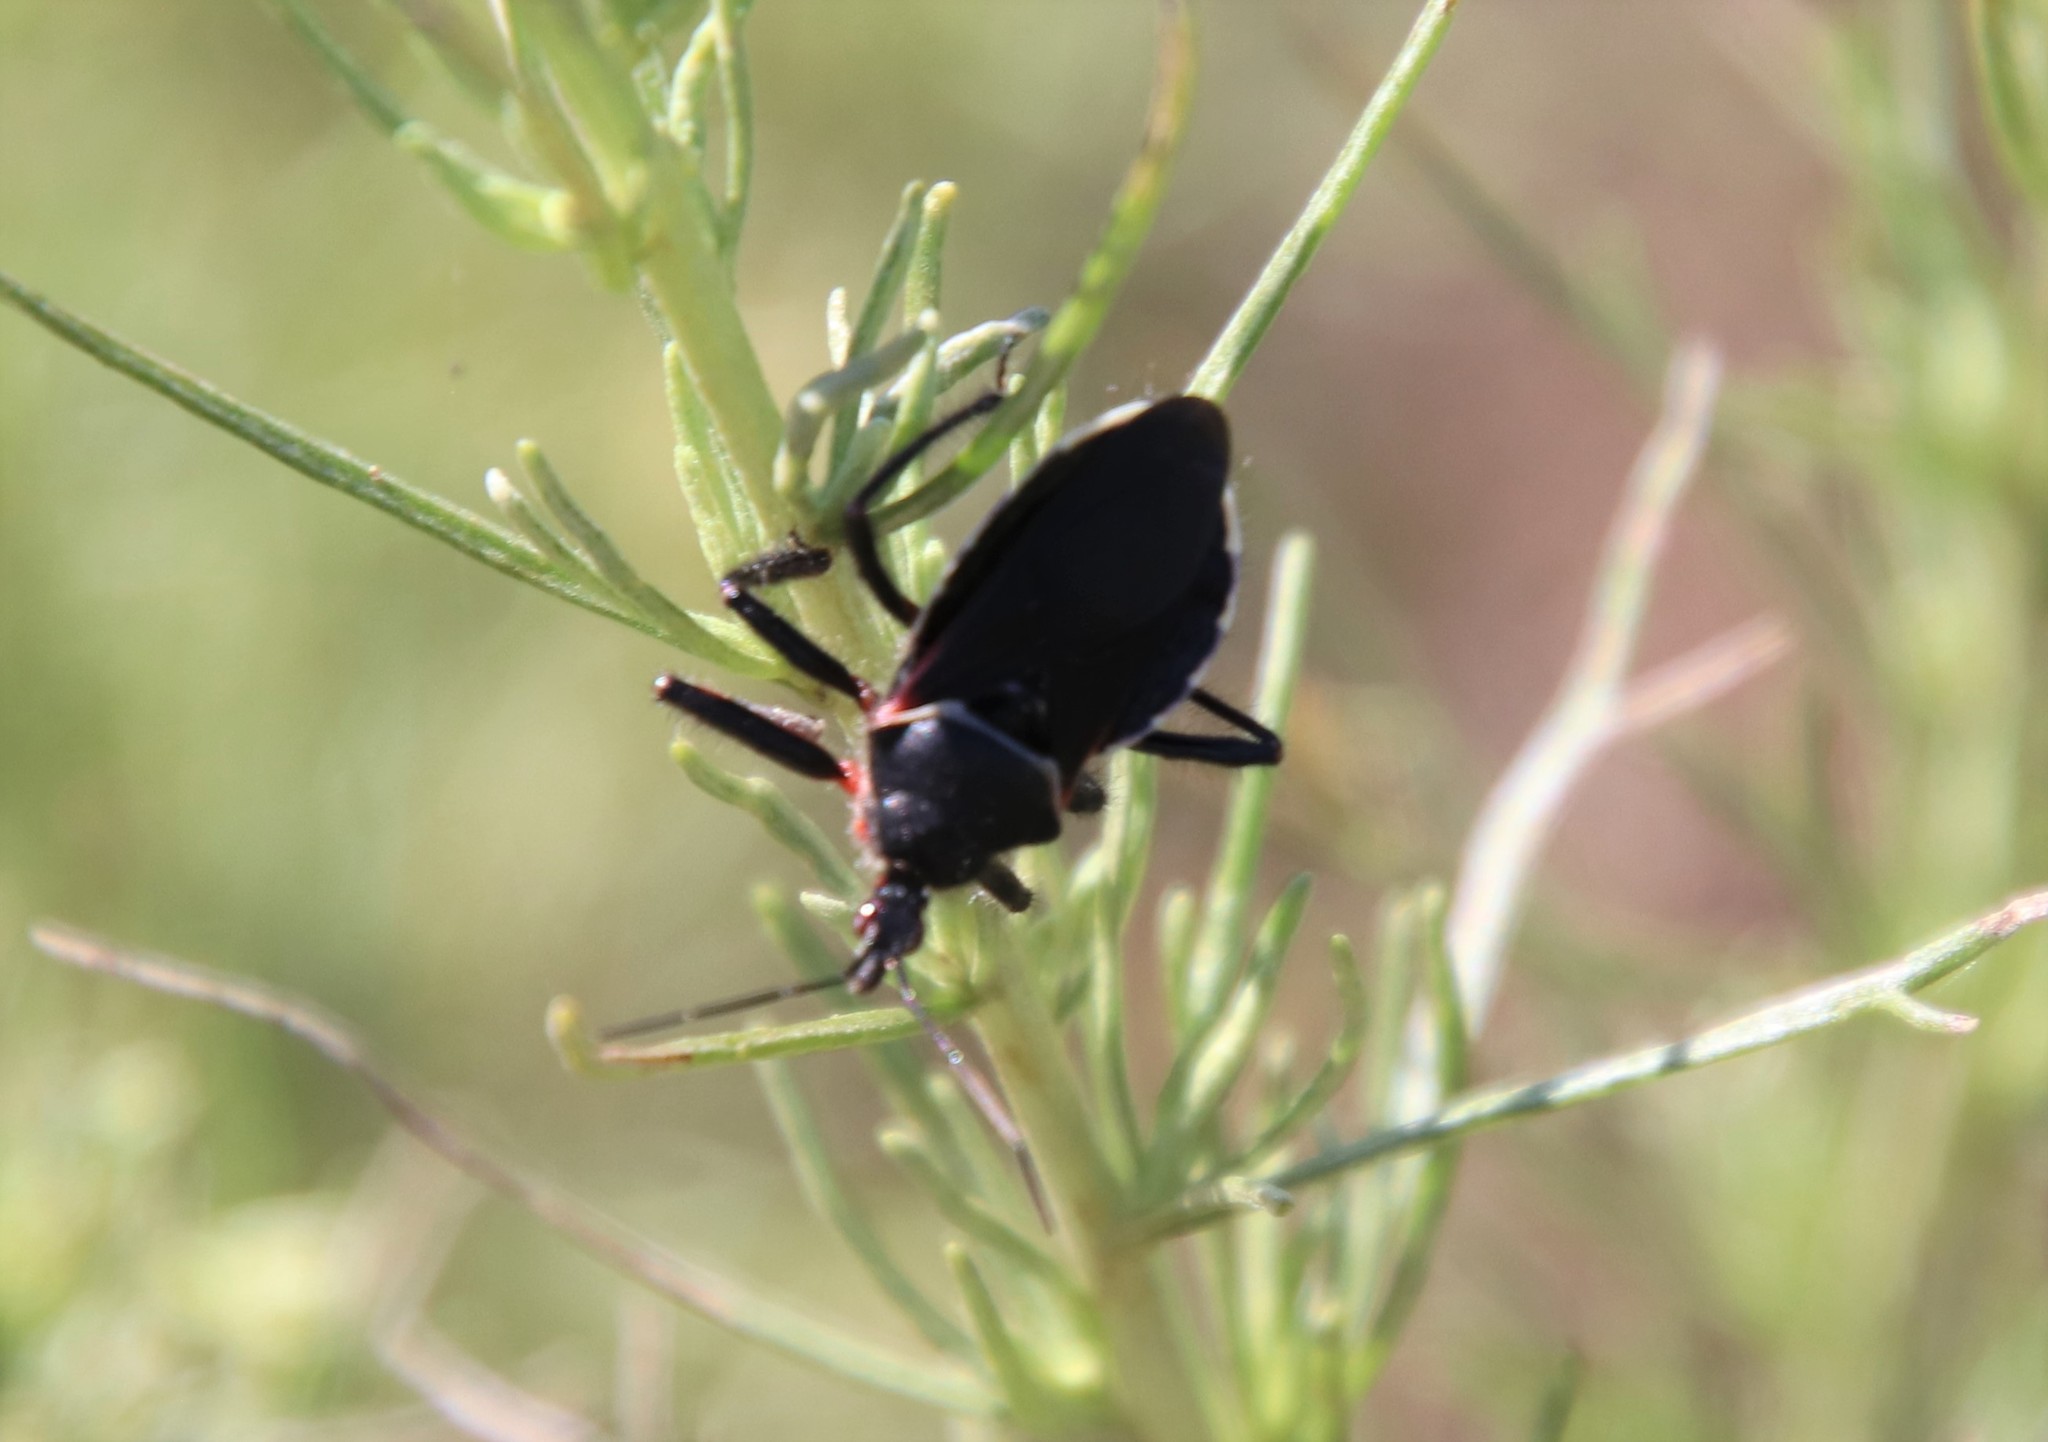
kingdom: Animalia
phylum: Arthropoda
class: Insecta
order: Hemiptera
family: Reduviidae
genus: Apiomerus
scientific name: Apiomerus californicus
